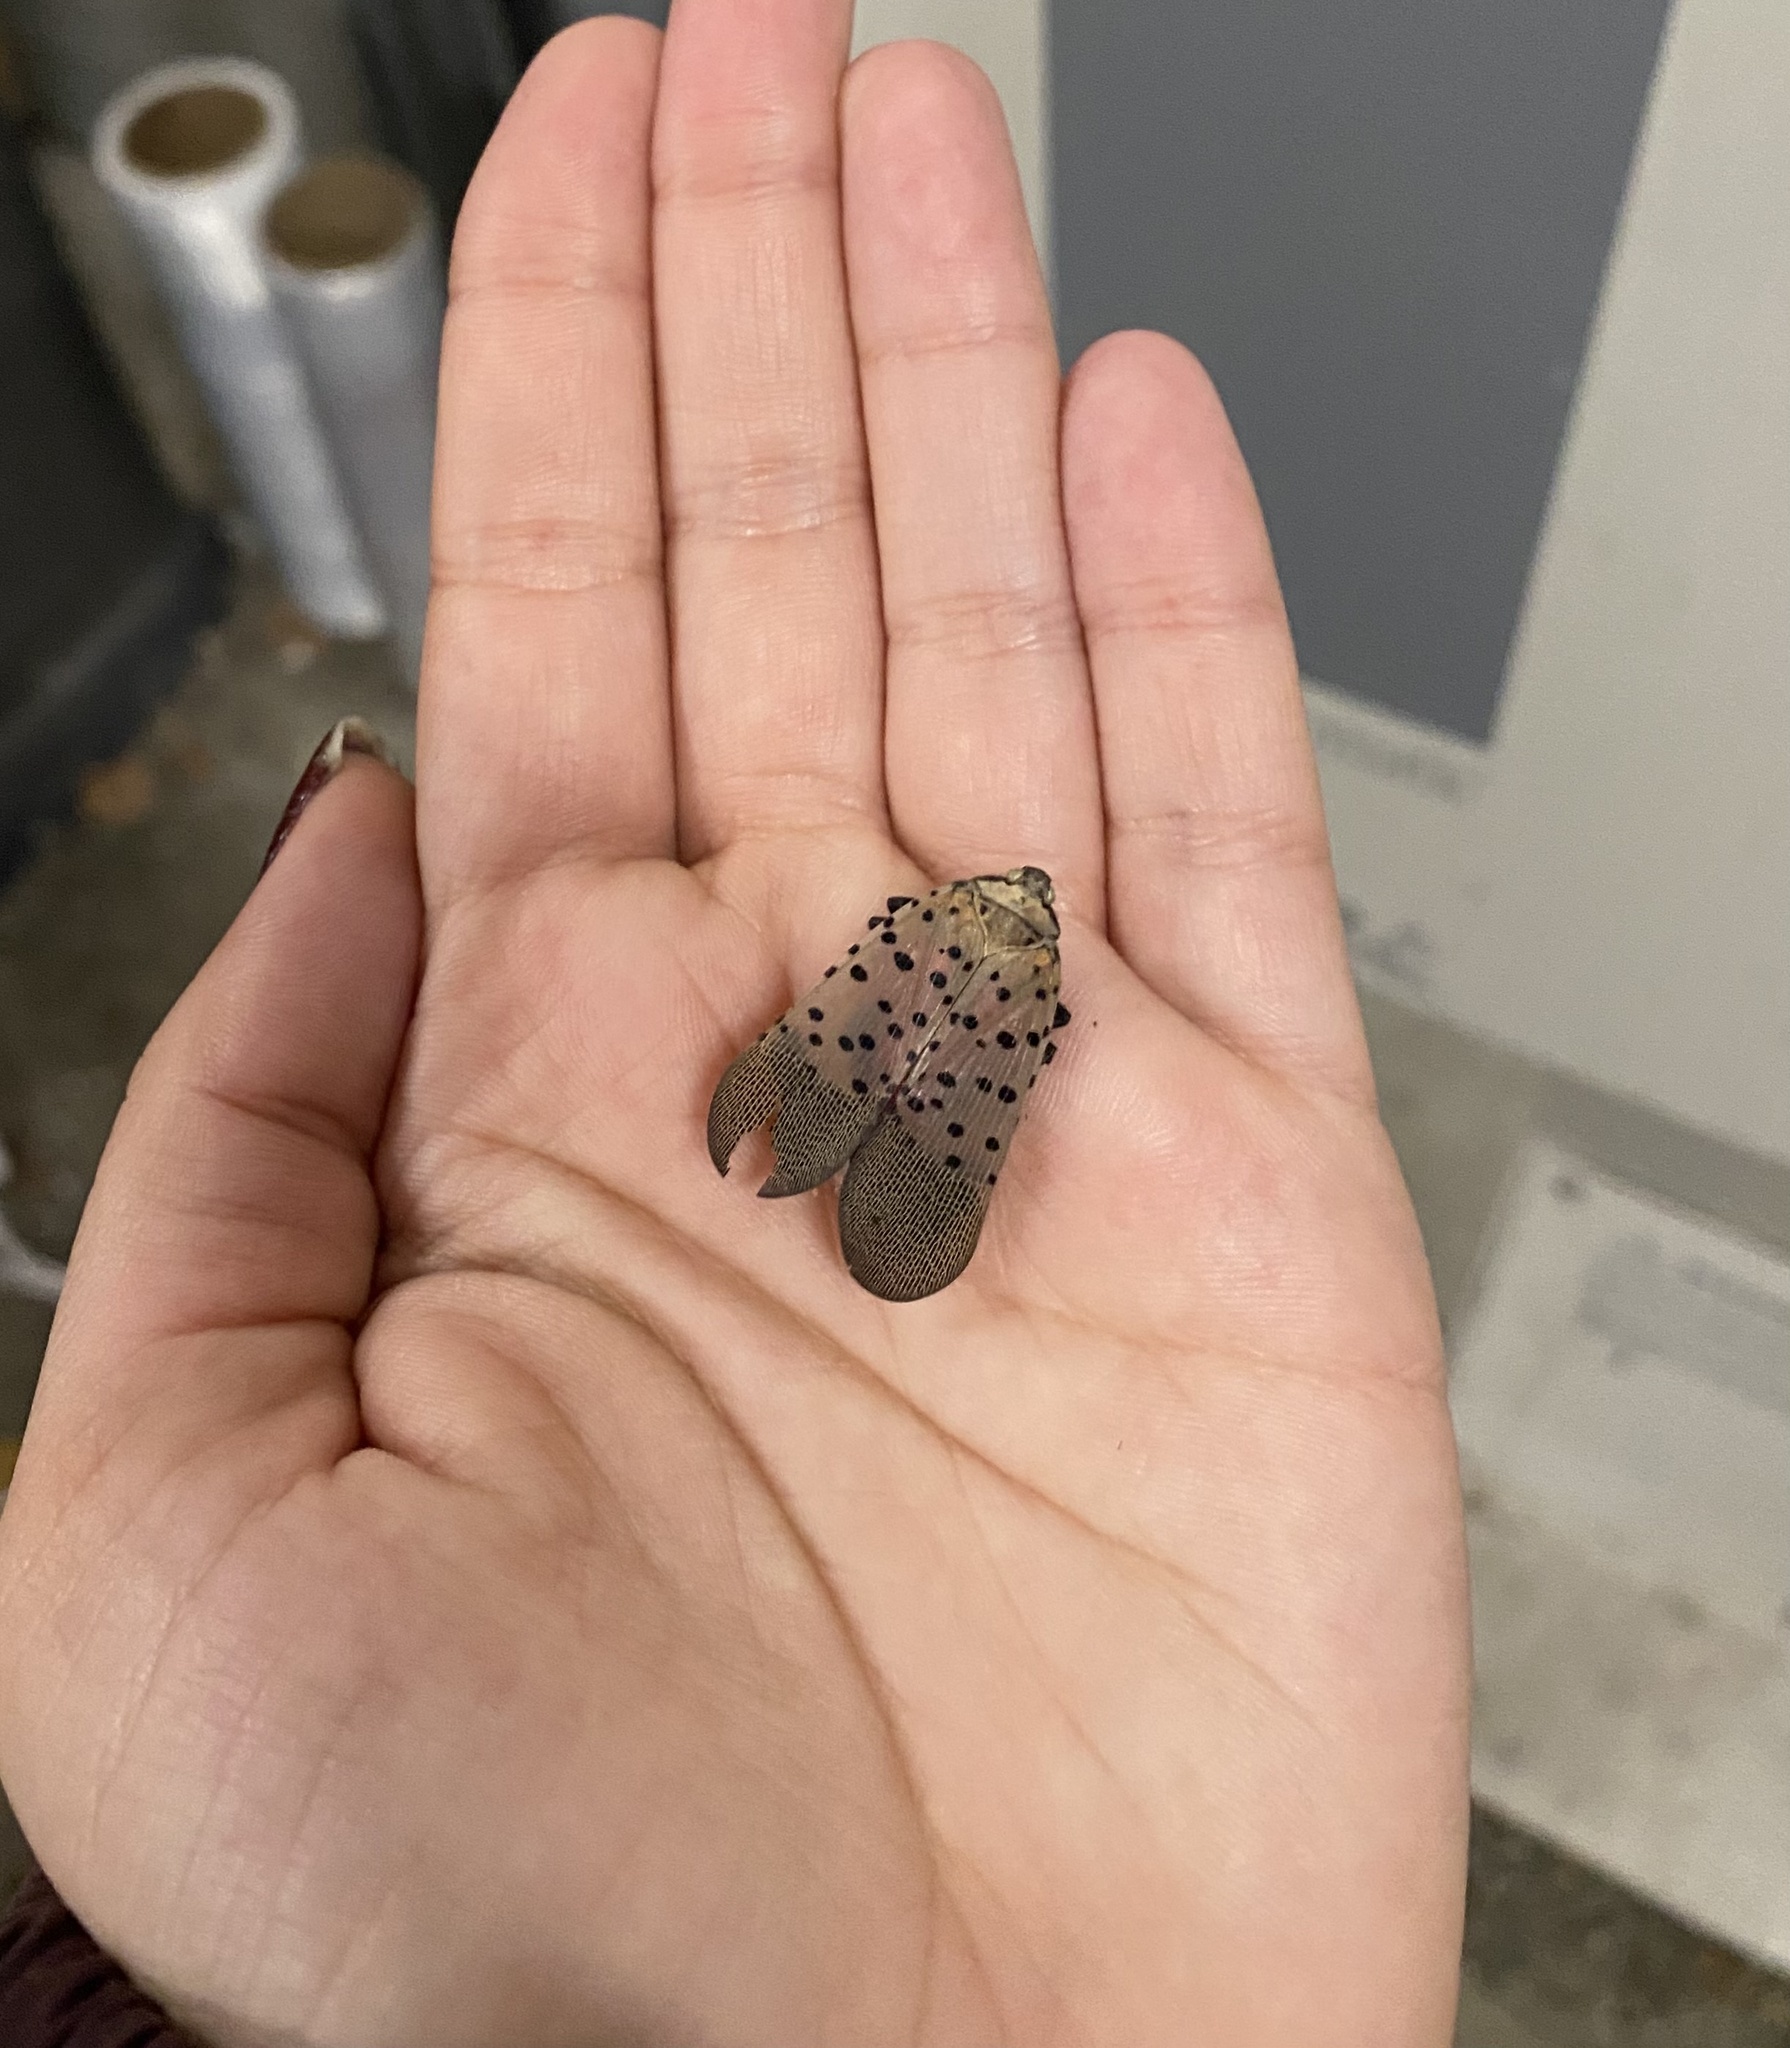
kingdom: Animalia
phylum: Arthropoda
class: Insecta
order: Hemiptera
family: Fulgoridae
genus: Lycorma
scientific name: Lycorma delicatula
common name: Spotted lanternfly
